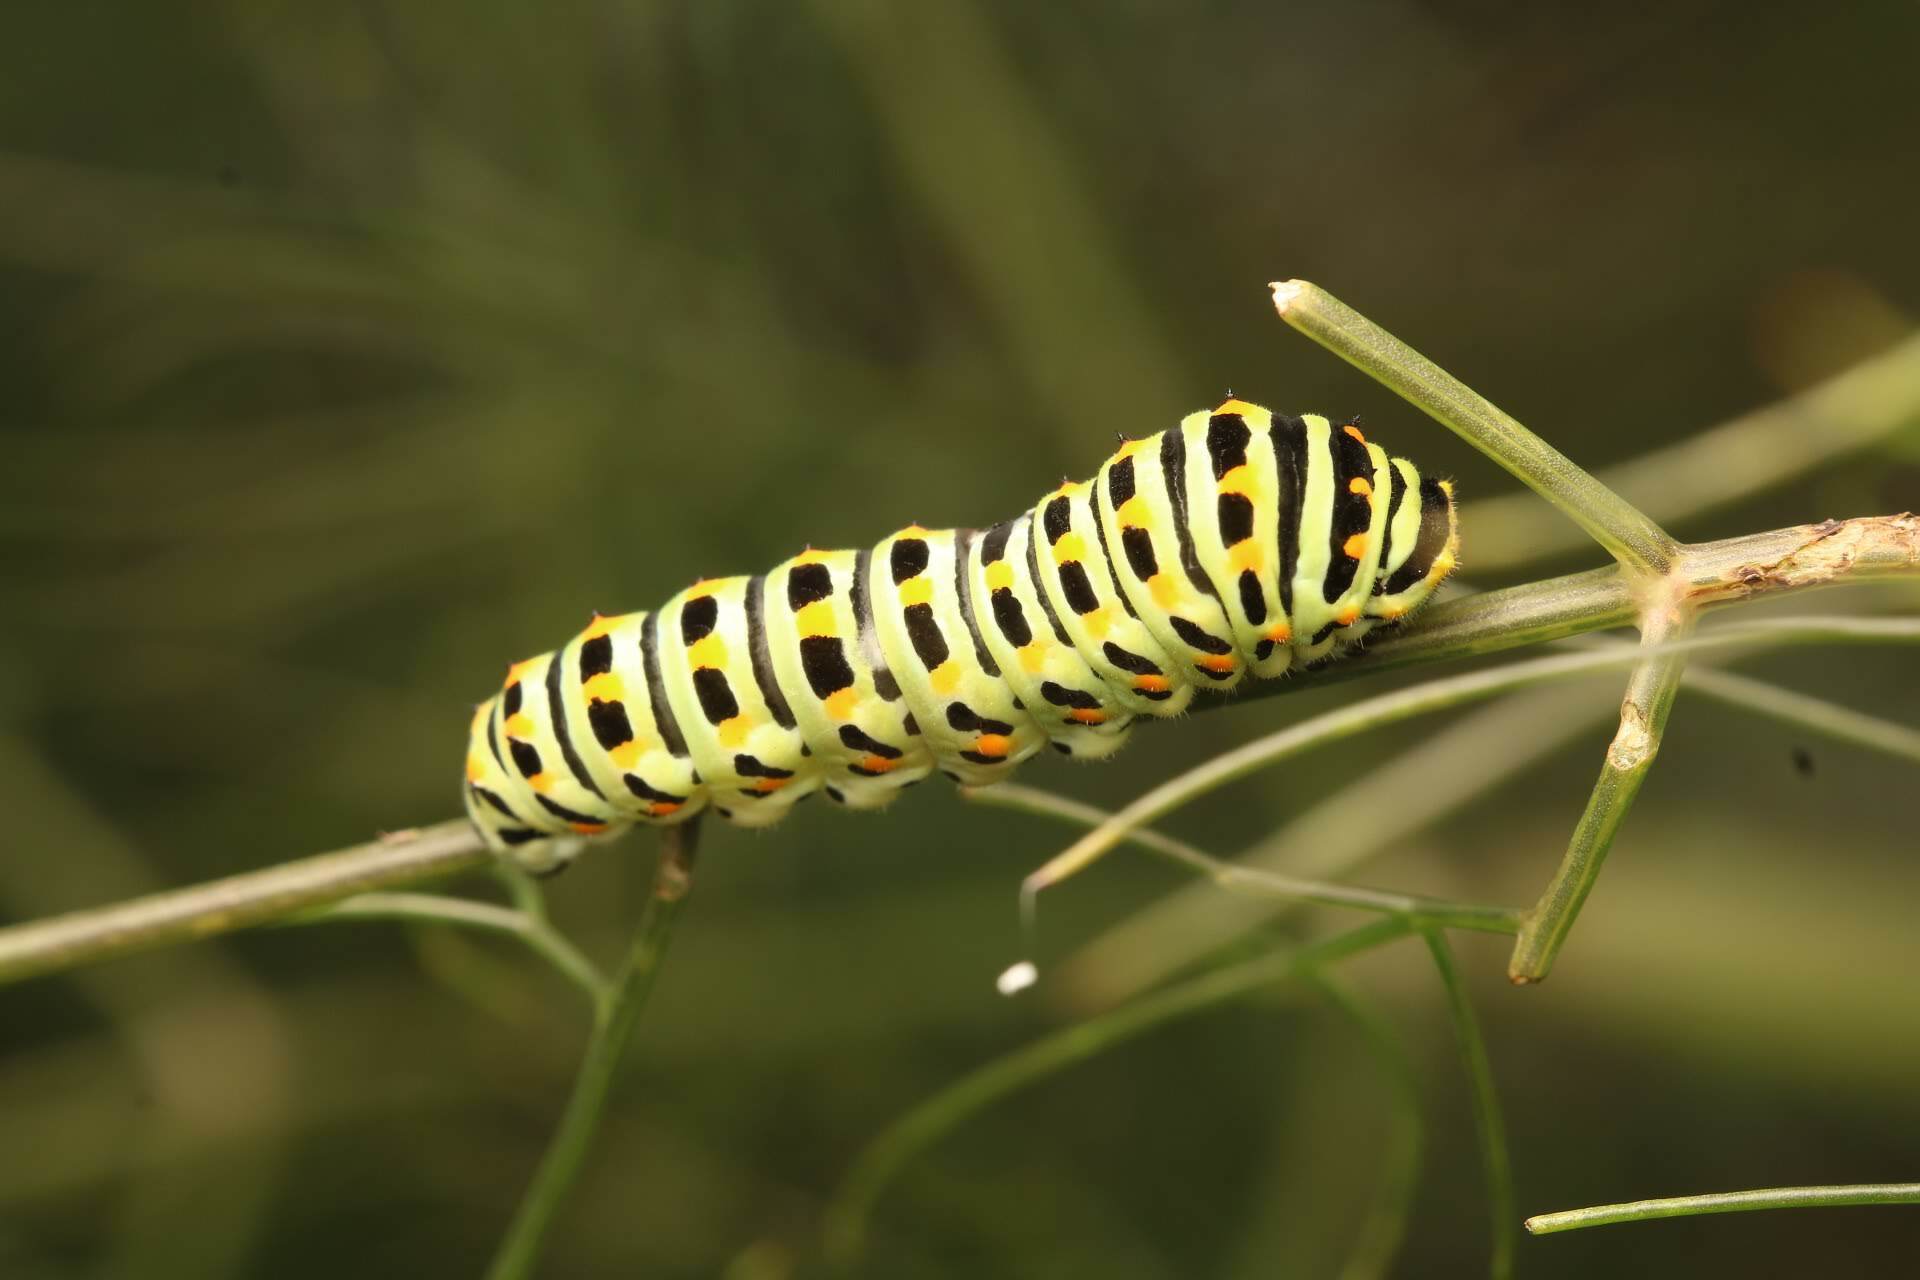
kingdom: Animalia
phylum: Arthropoda
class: Insecta
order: Lepidoptera
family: Papilionidae
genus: Papilio
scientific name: Papilio machaon
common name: Swallowtail
